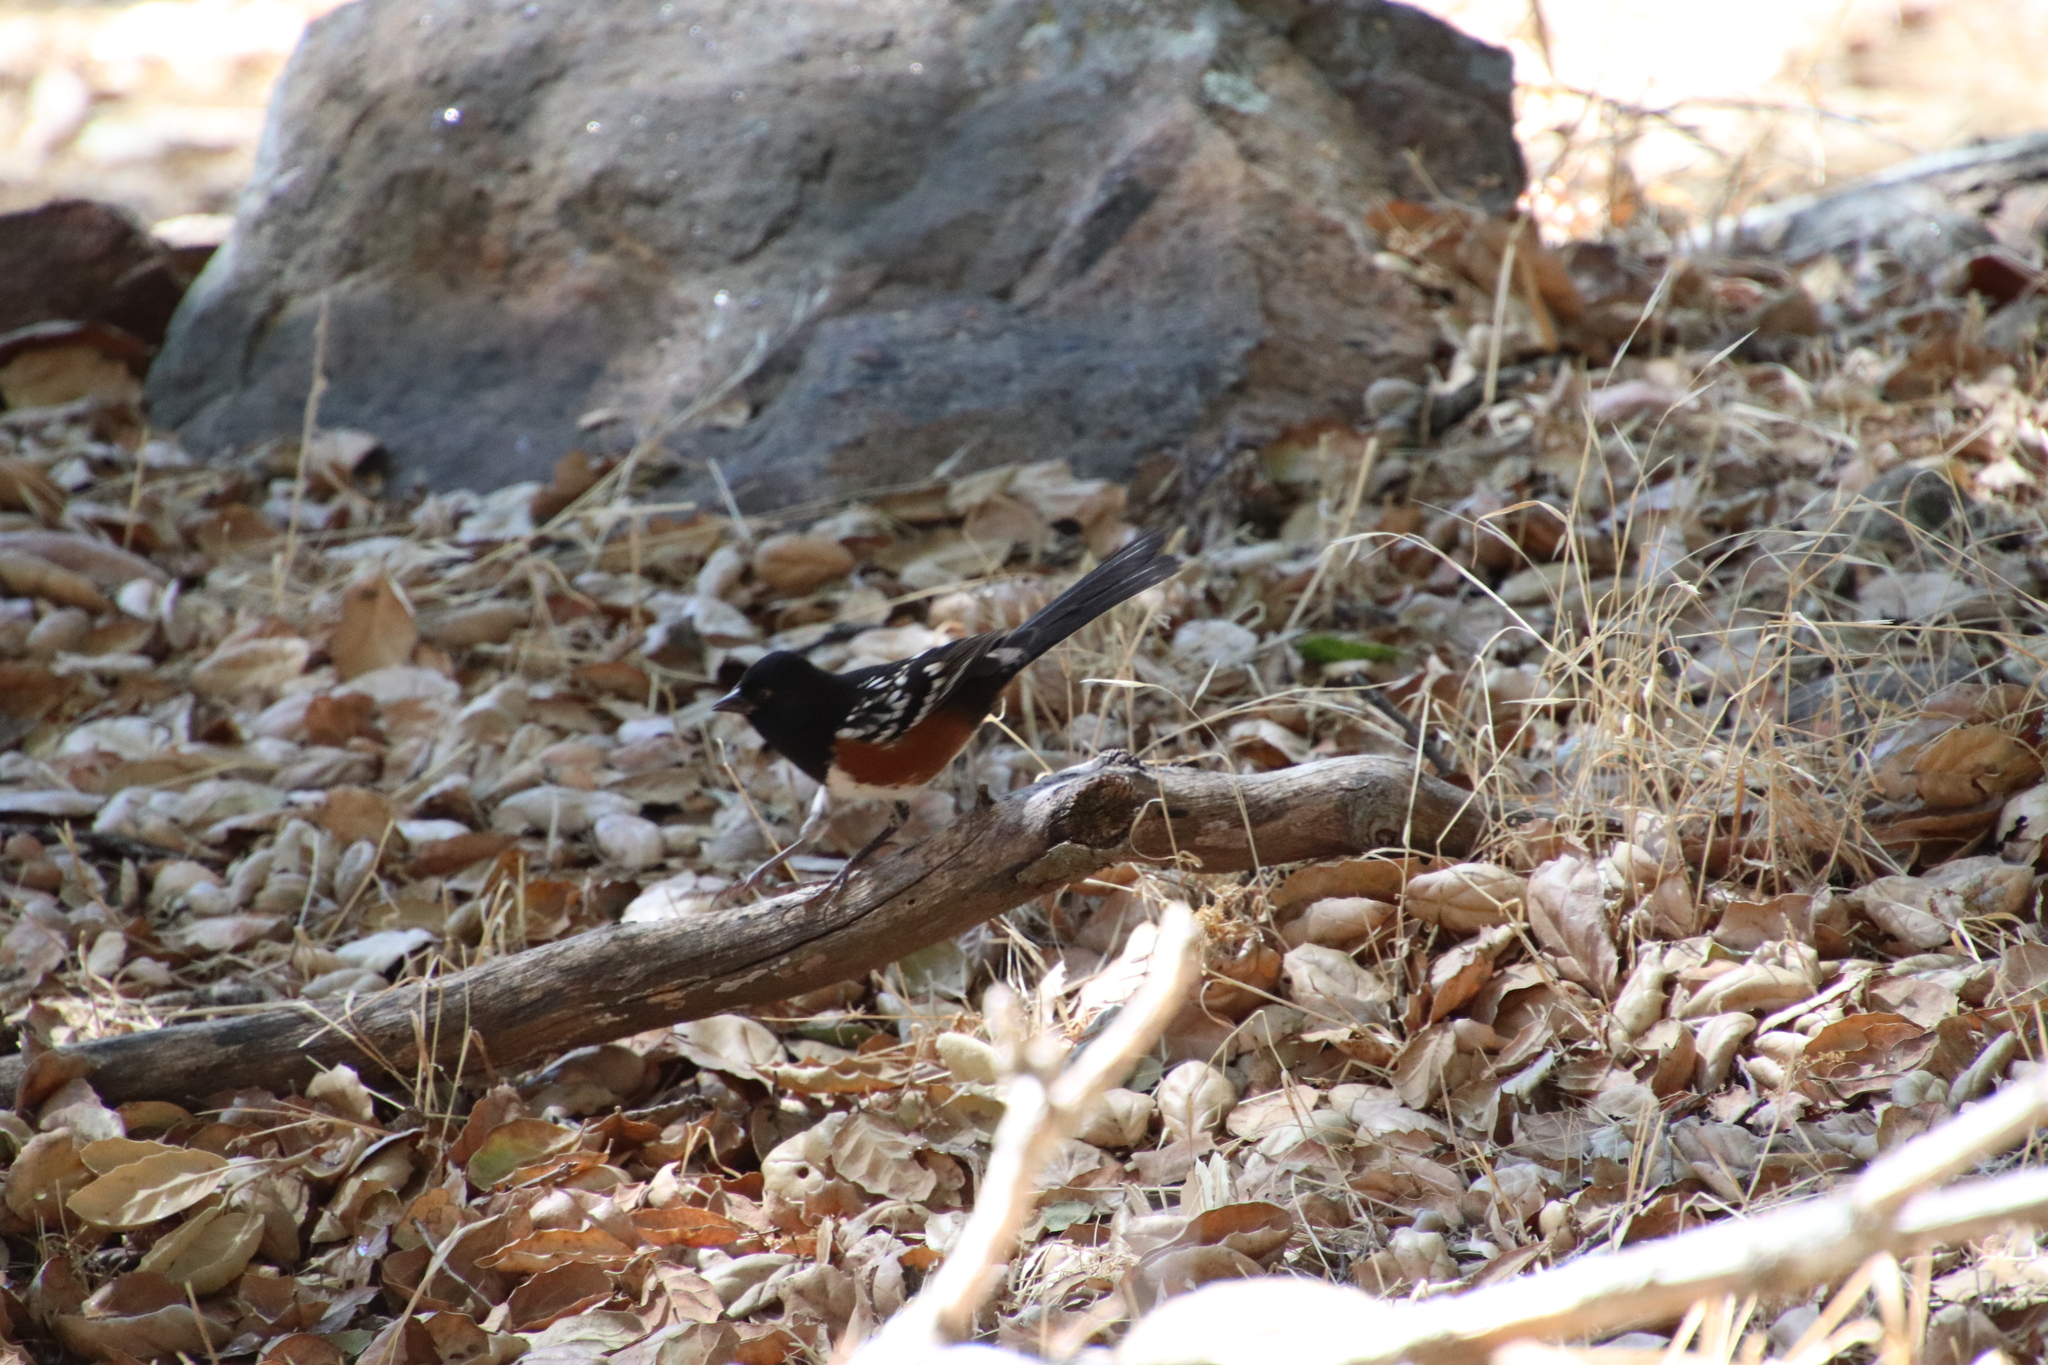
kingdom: Animalia
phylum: Chordata
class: Aves
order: Passeriformes
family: Passerellidae
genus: Pipilo
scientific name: Pipilo maculatus
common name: Spotted towhee
